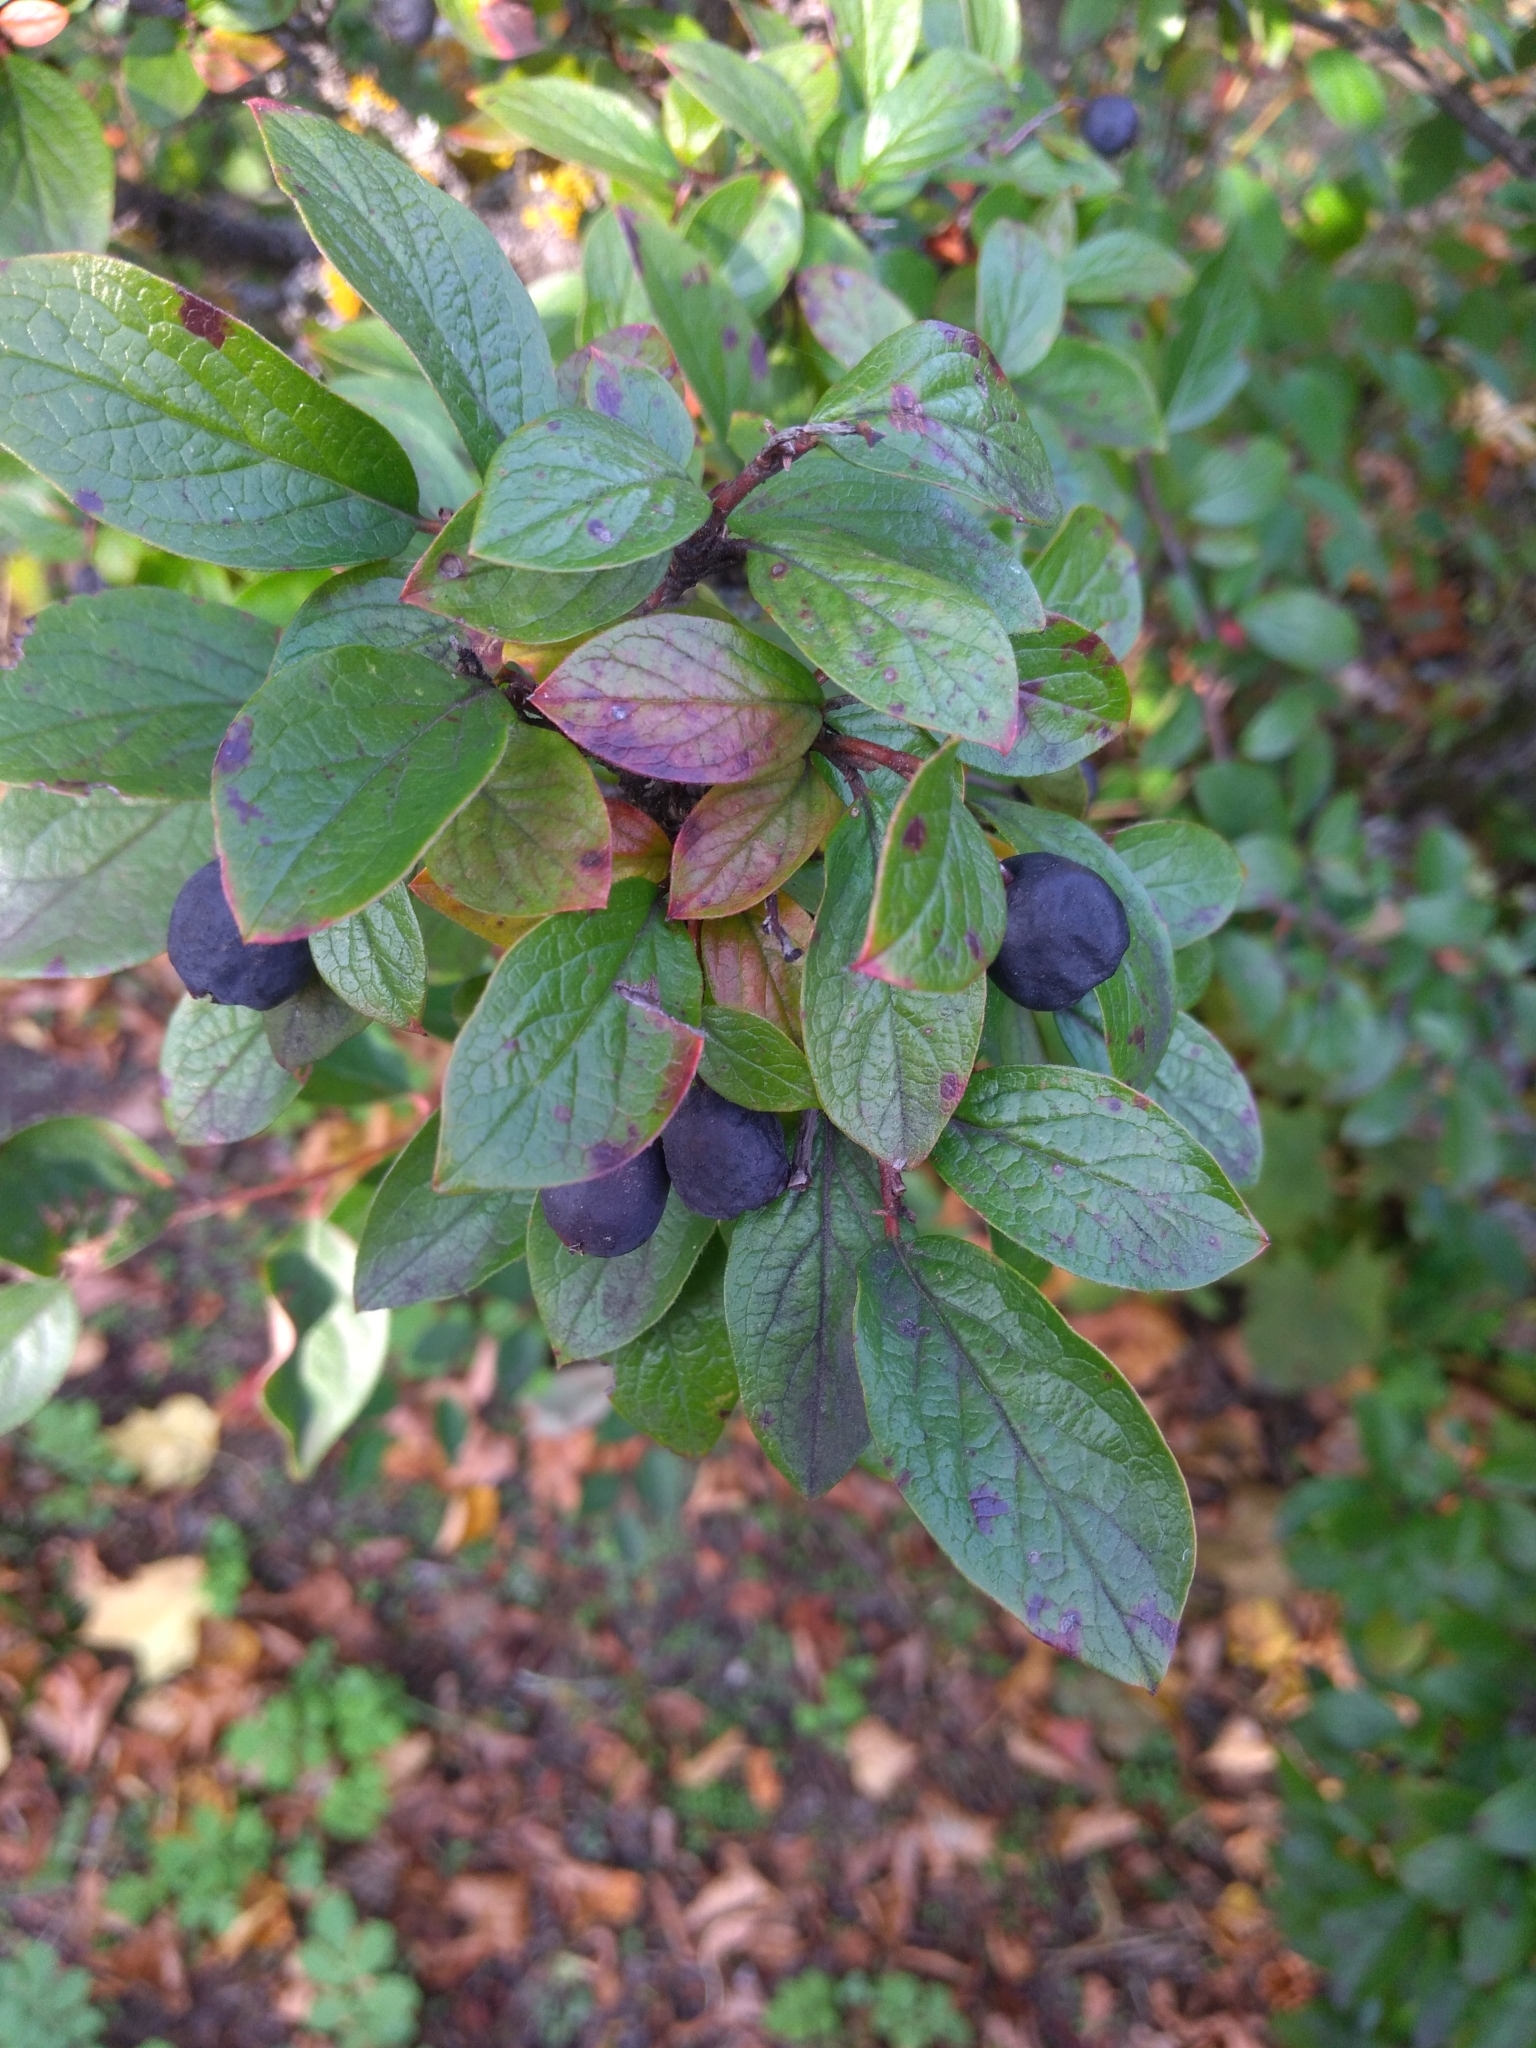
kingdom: Plantae
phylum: Tracheophyta
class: Magnoliopsida
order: Rosales
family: Rosaceae
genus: Cotoneaster
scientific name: Cotoneaster acutifolius
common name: Peking cotoneaster
